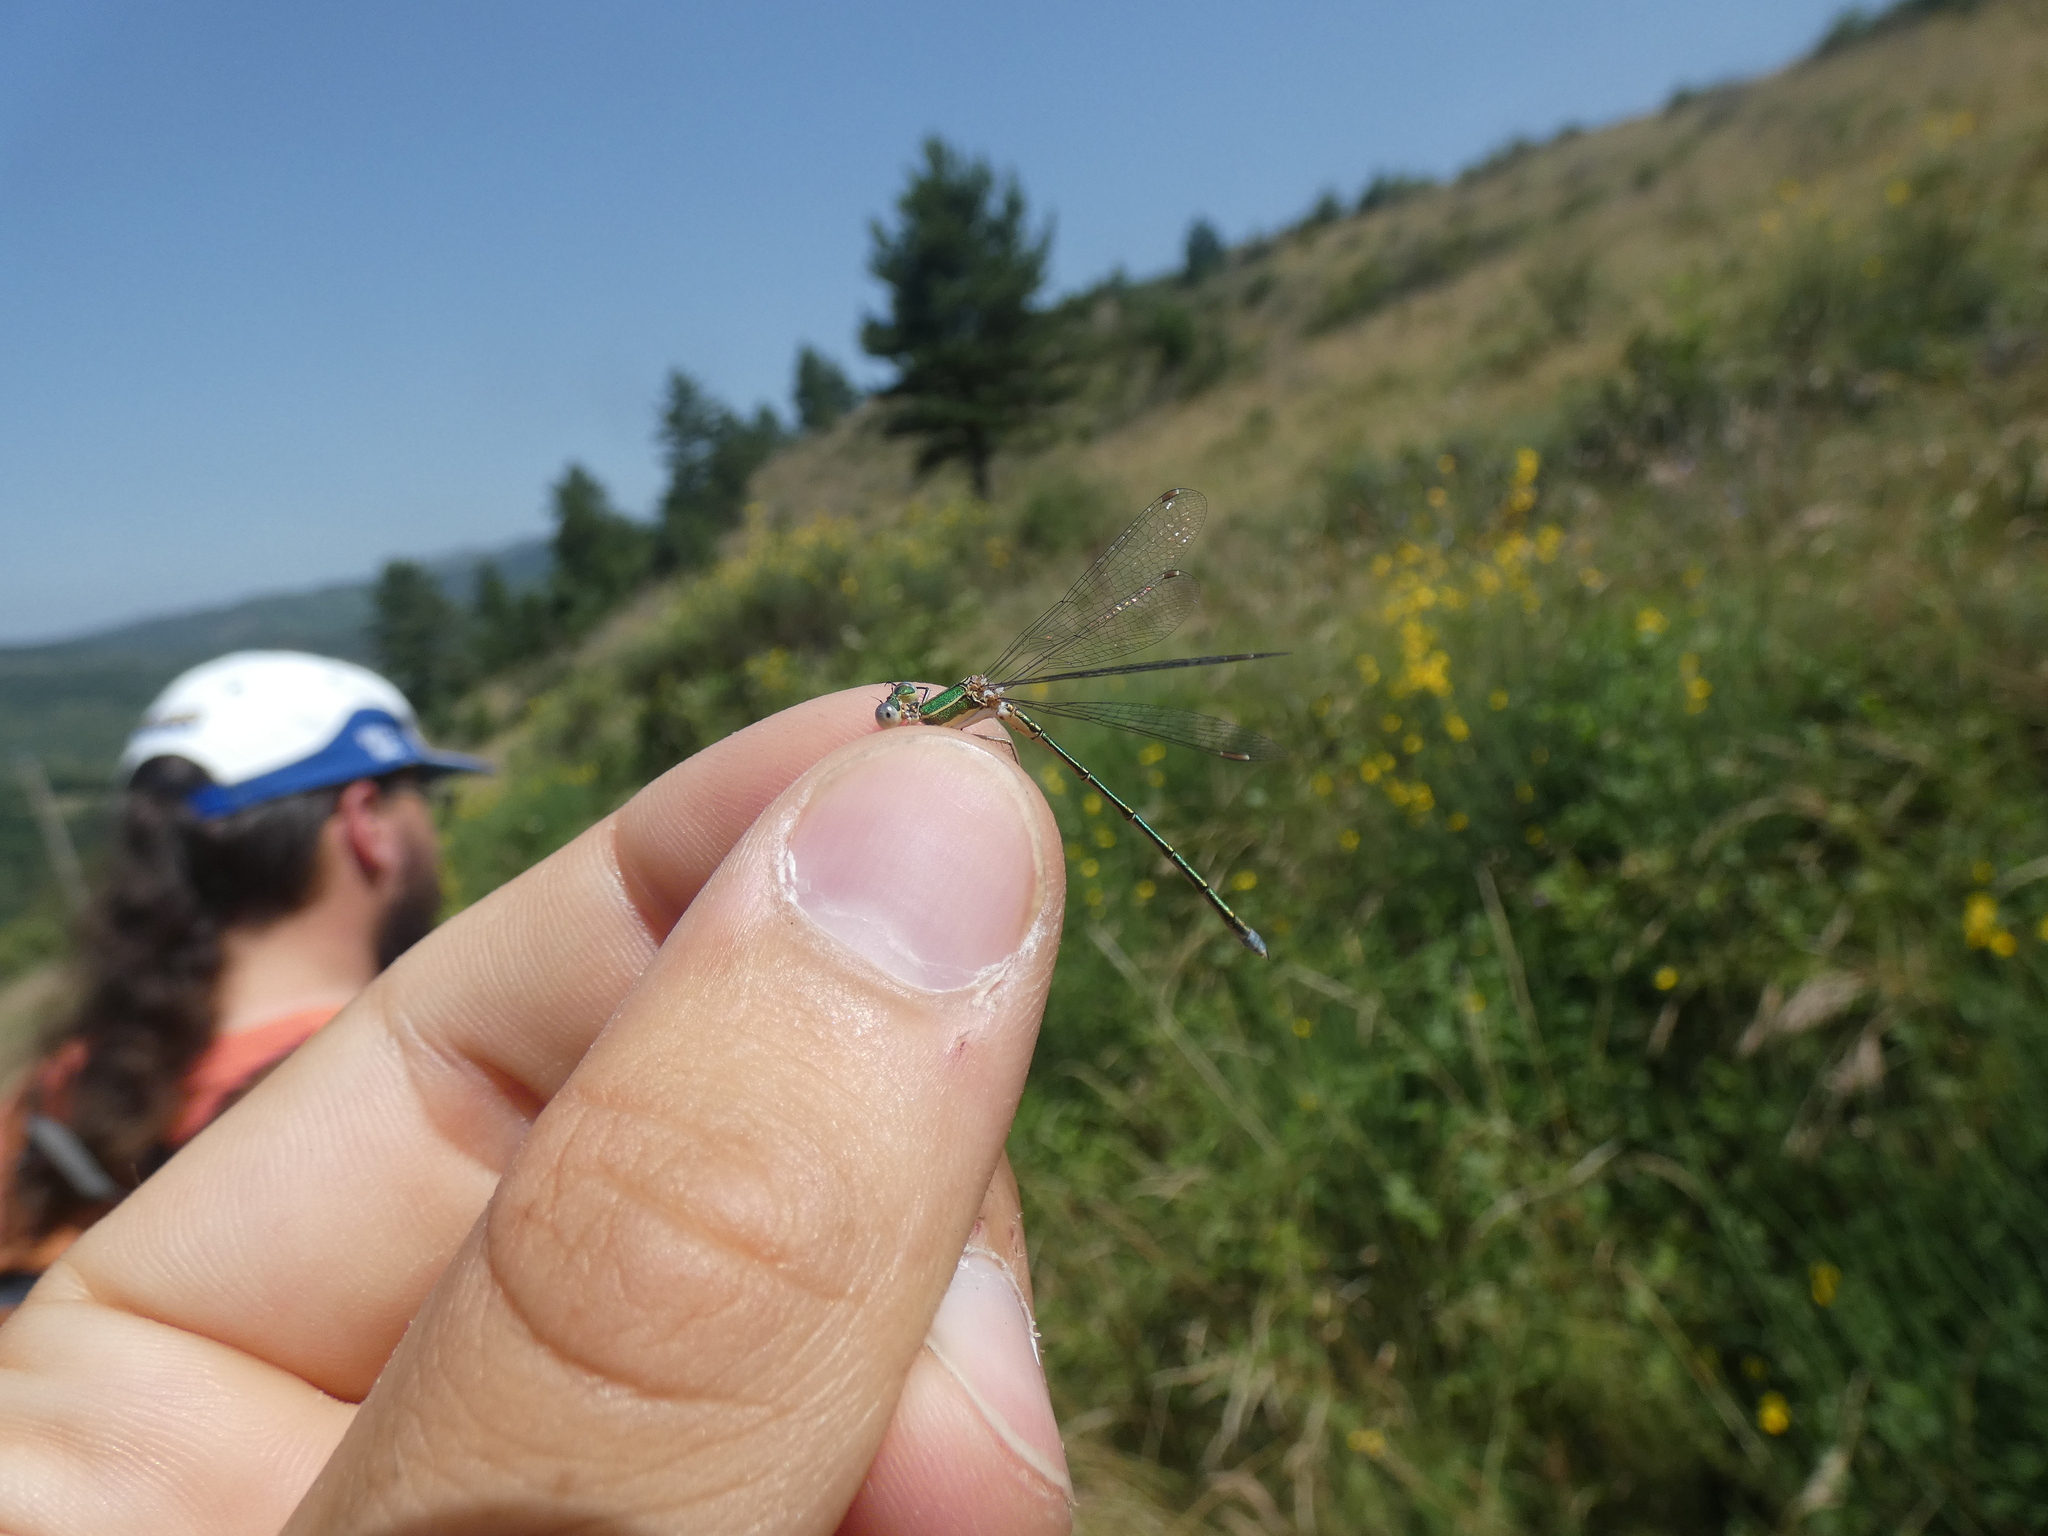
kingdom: Animalia
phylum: Arthropoda
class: Insecta
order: Odonata
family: Lestidae
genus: Lestes
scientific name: Lestes virens
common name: Small emerald spreadwing
